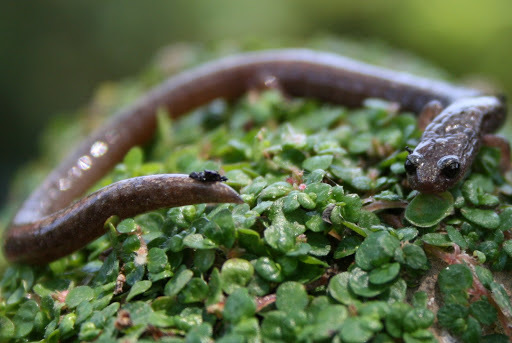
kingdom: Animalia
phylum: Chordata
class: Amphibia
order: Caudata
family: Plethodontidae
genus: Batrachoseps
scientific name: Batrachoseps attenuatus
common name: California slender salamander
